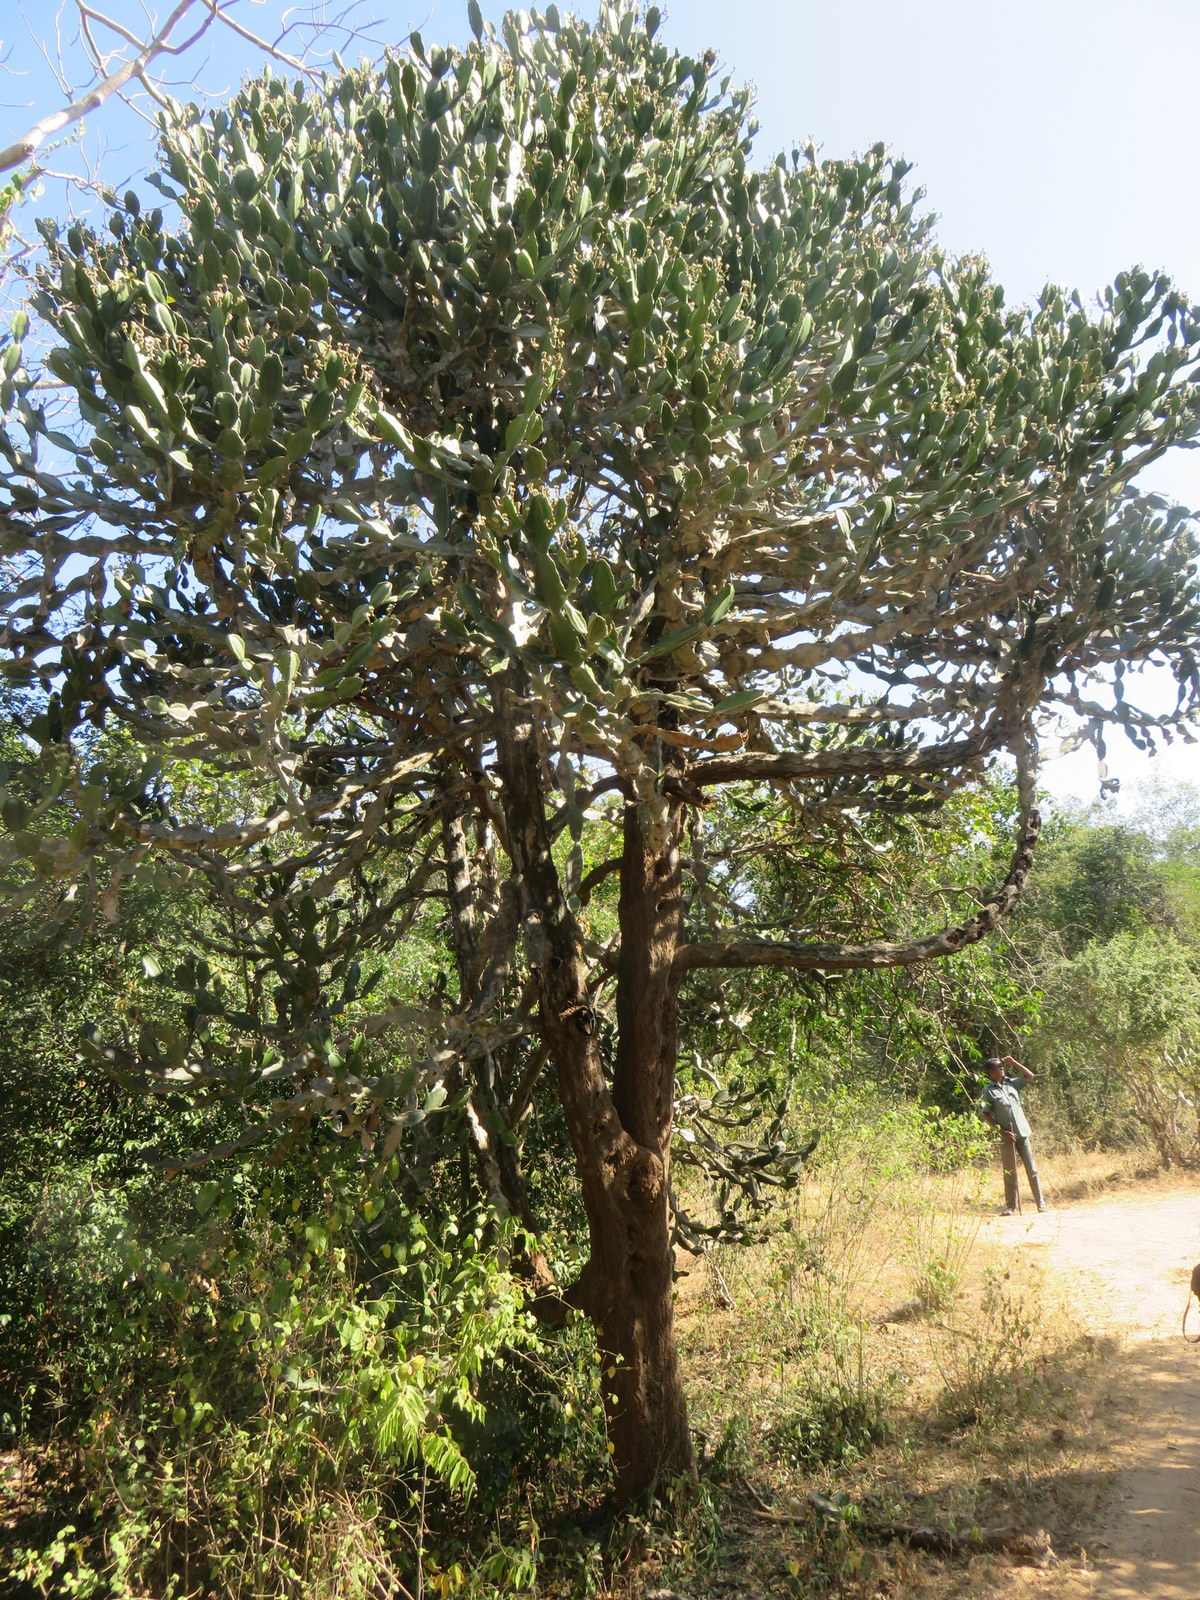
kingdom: Plantae
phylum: Tracheophyta
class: Magnoliopsida
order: Malpighiales
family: Euphorbiaceae
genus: Euphorbia
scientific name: Euphorbia antiquorum
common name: Malayan spurge tree
